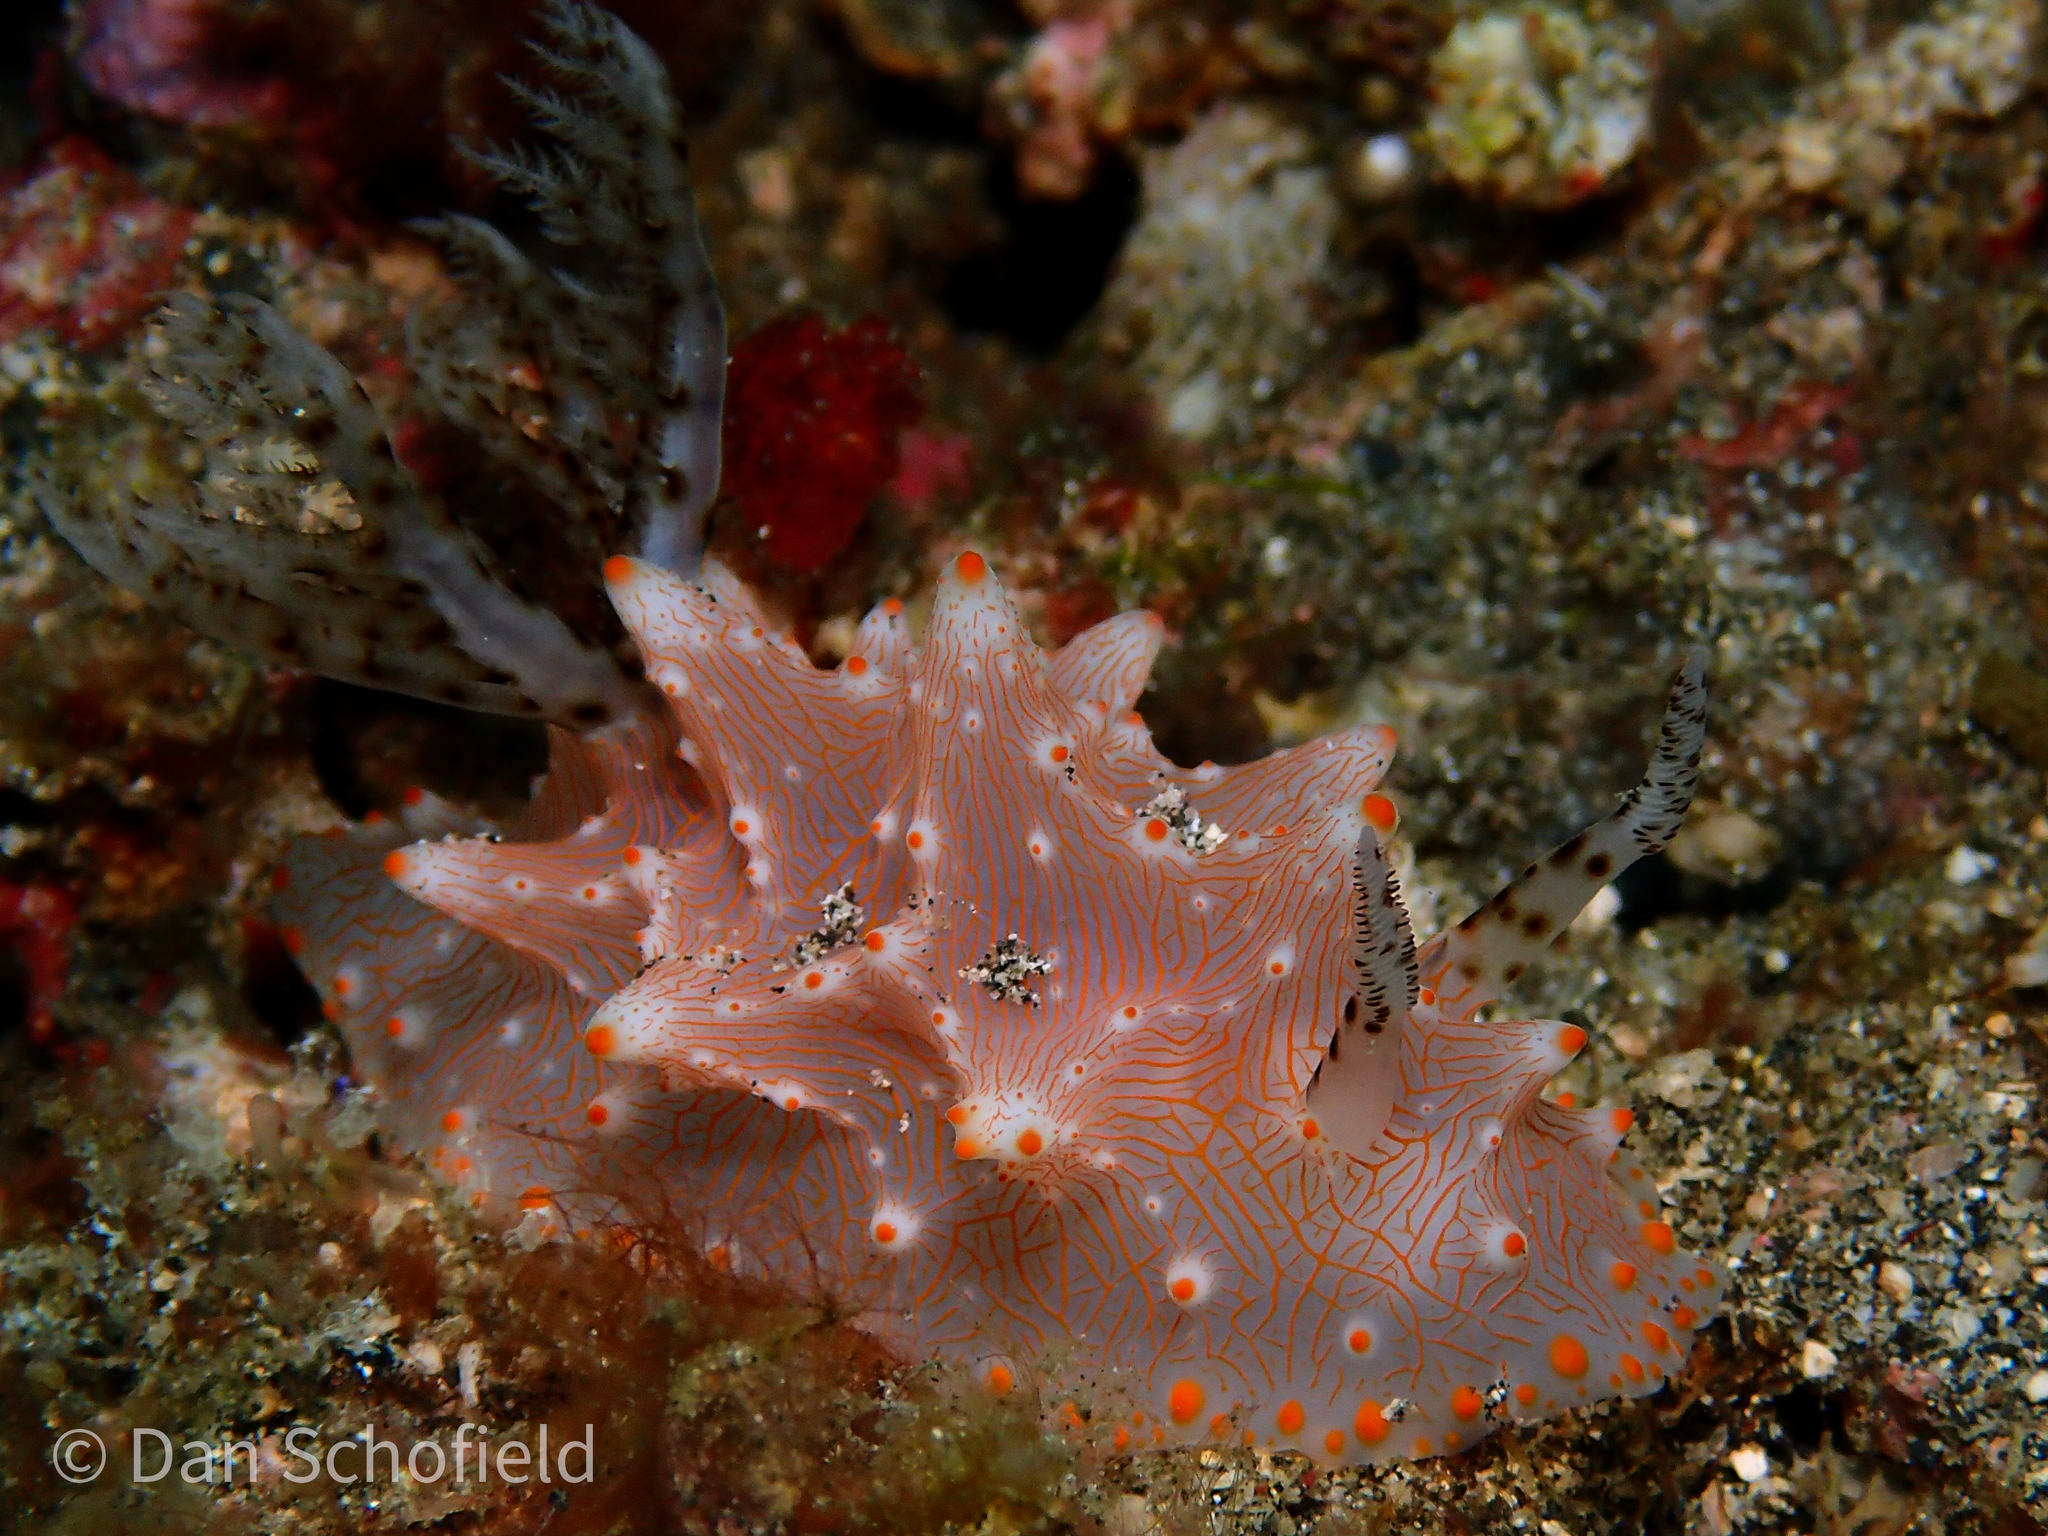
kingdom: Animalia
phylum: Mollusca
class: Gastropoda
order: Nudibranchia
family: Discodorididae
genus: Halgerda
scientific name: Halgerda batangas
